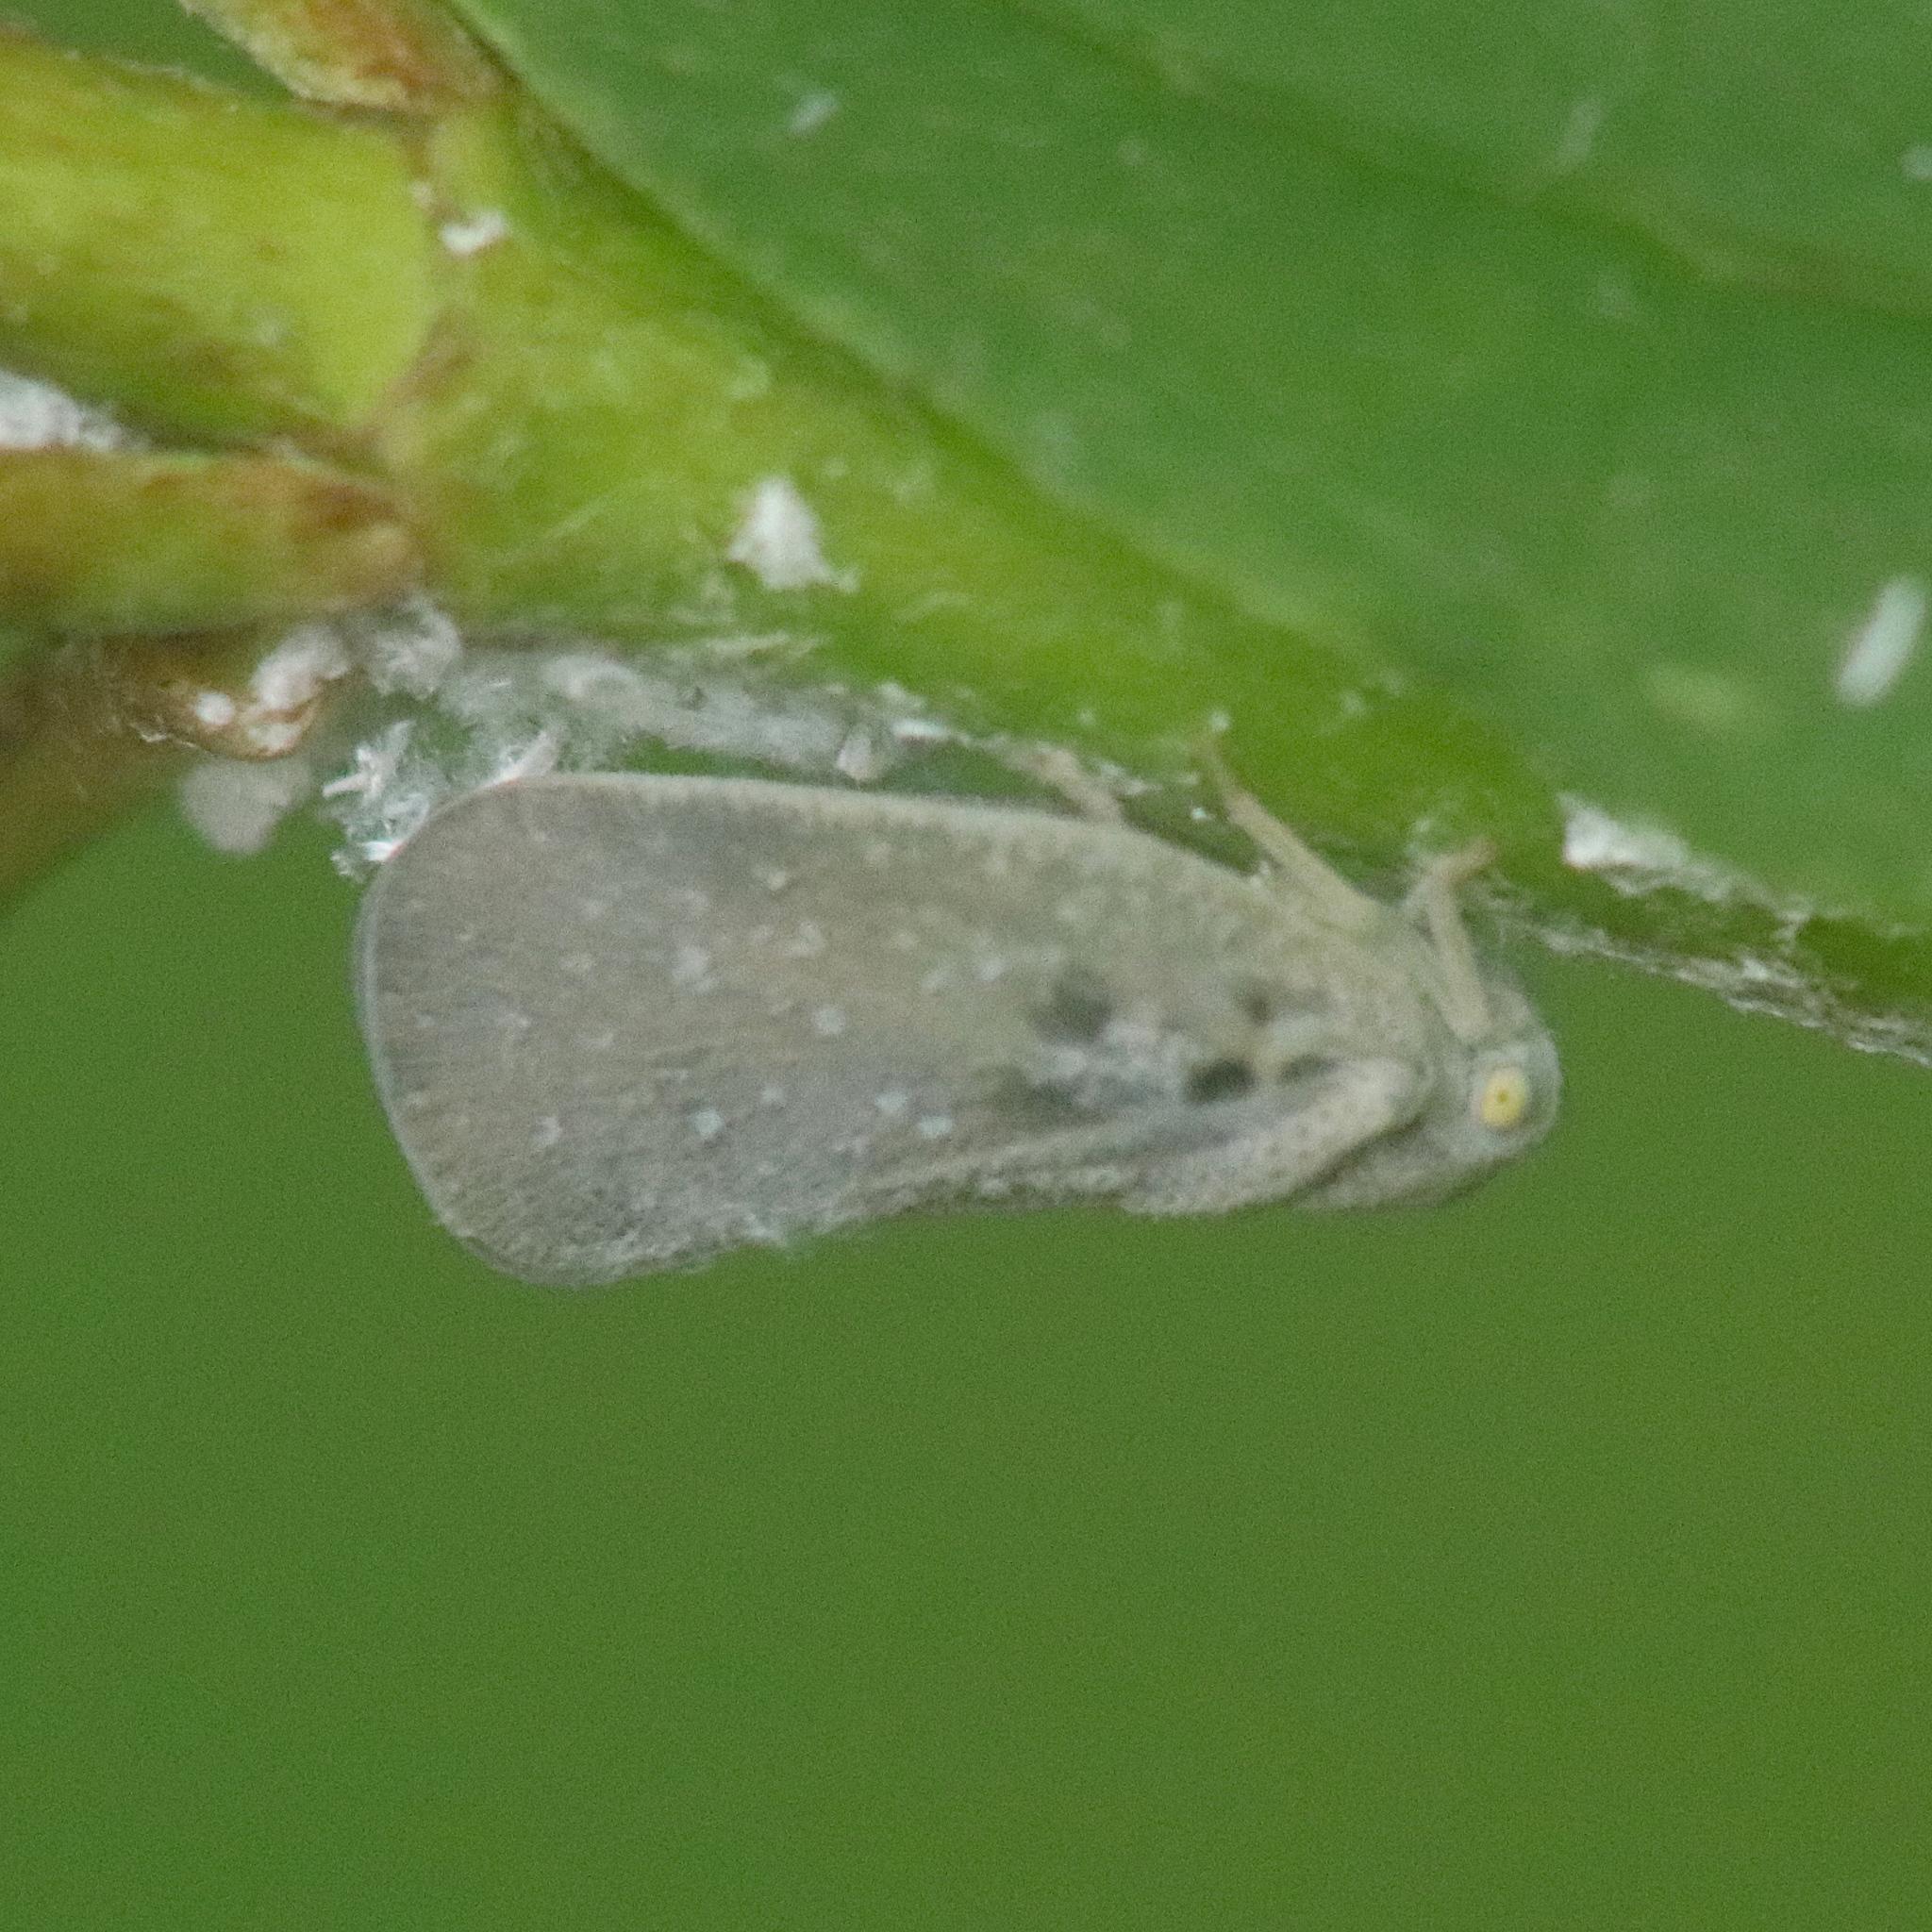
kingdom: Animalia
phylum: Arthropoda
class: Insecta
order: Hemiptera
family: Flatidae
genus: Metcalfa
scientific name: Metcalfa pruinosa
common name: Citrus flatid planthopper
